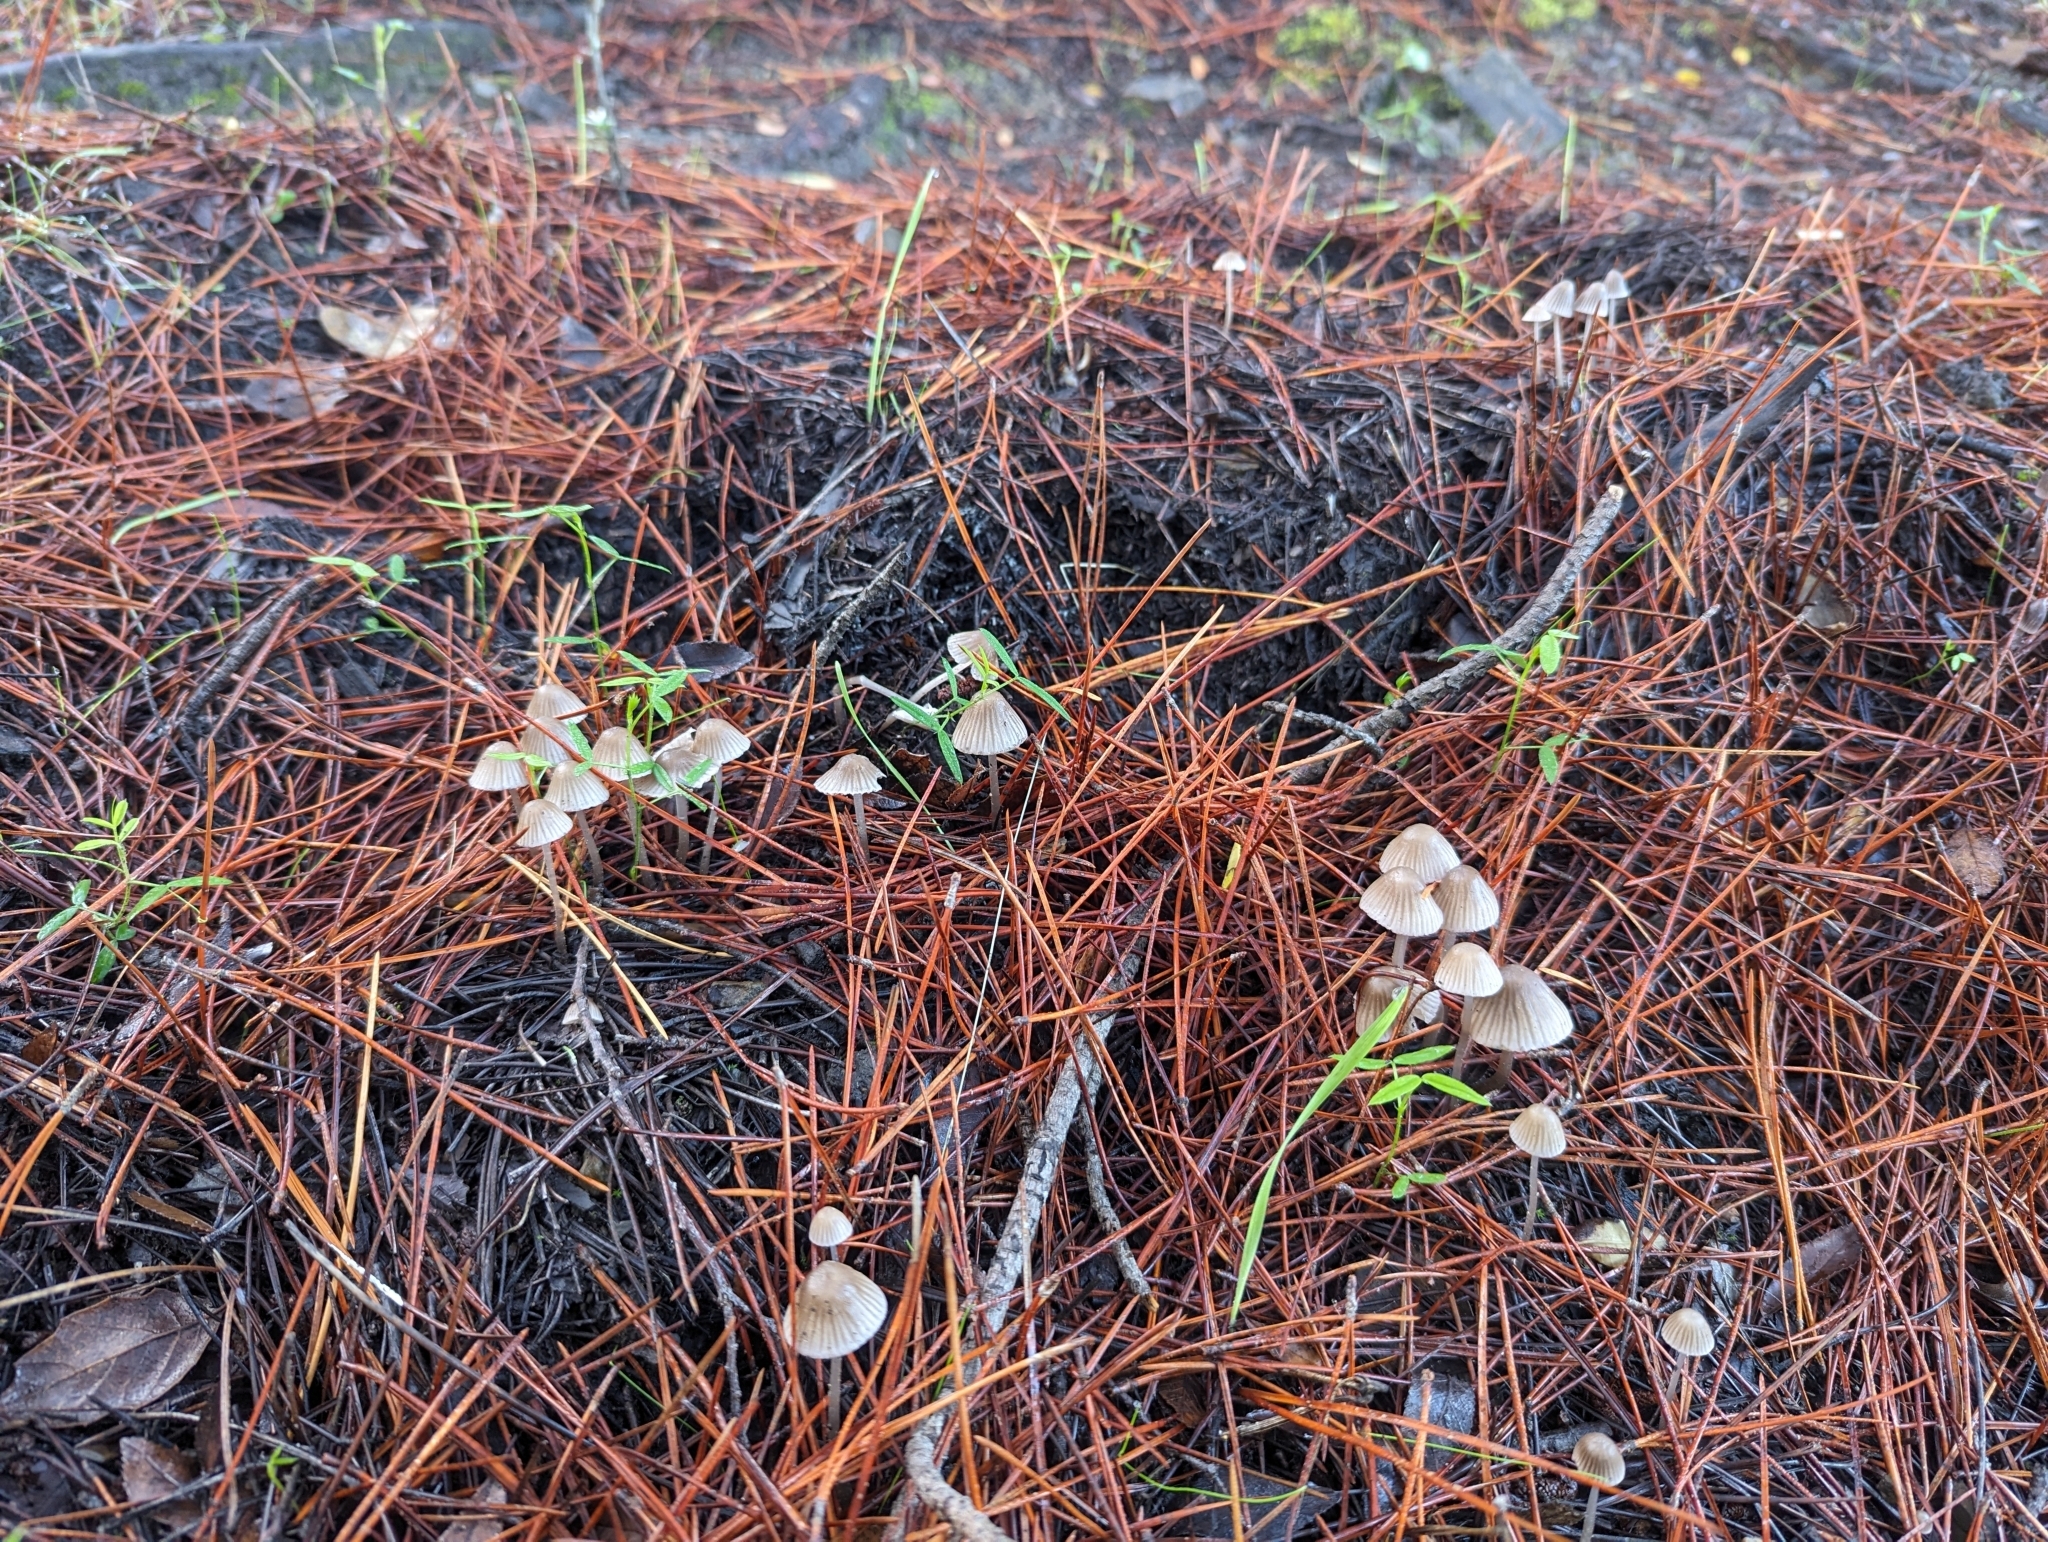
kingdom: Fungi
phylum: Basidiomycota
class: Agaricomycetes
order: Agaricales
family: Mycenaceae
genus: Mycena
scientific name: Mycena capillaripes
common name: Pinkedge bonnet
